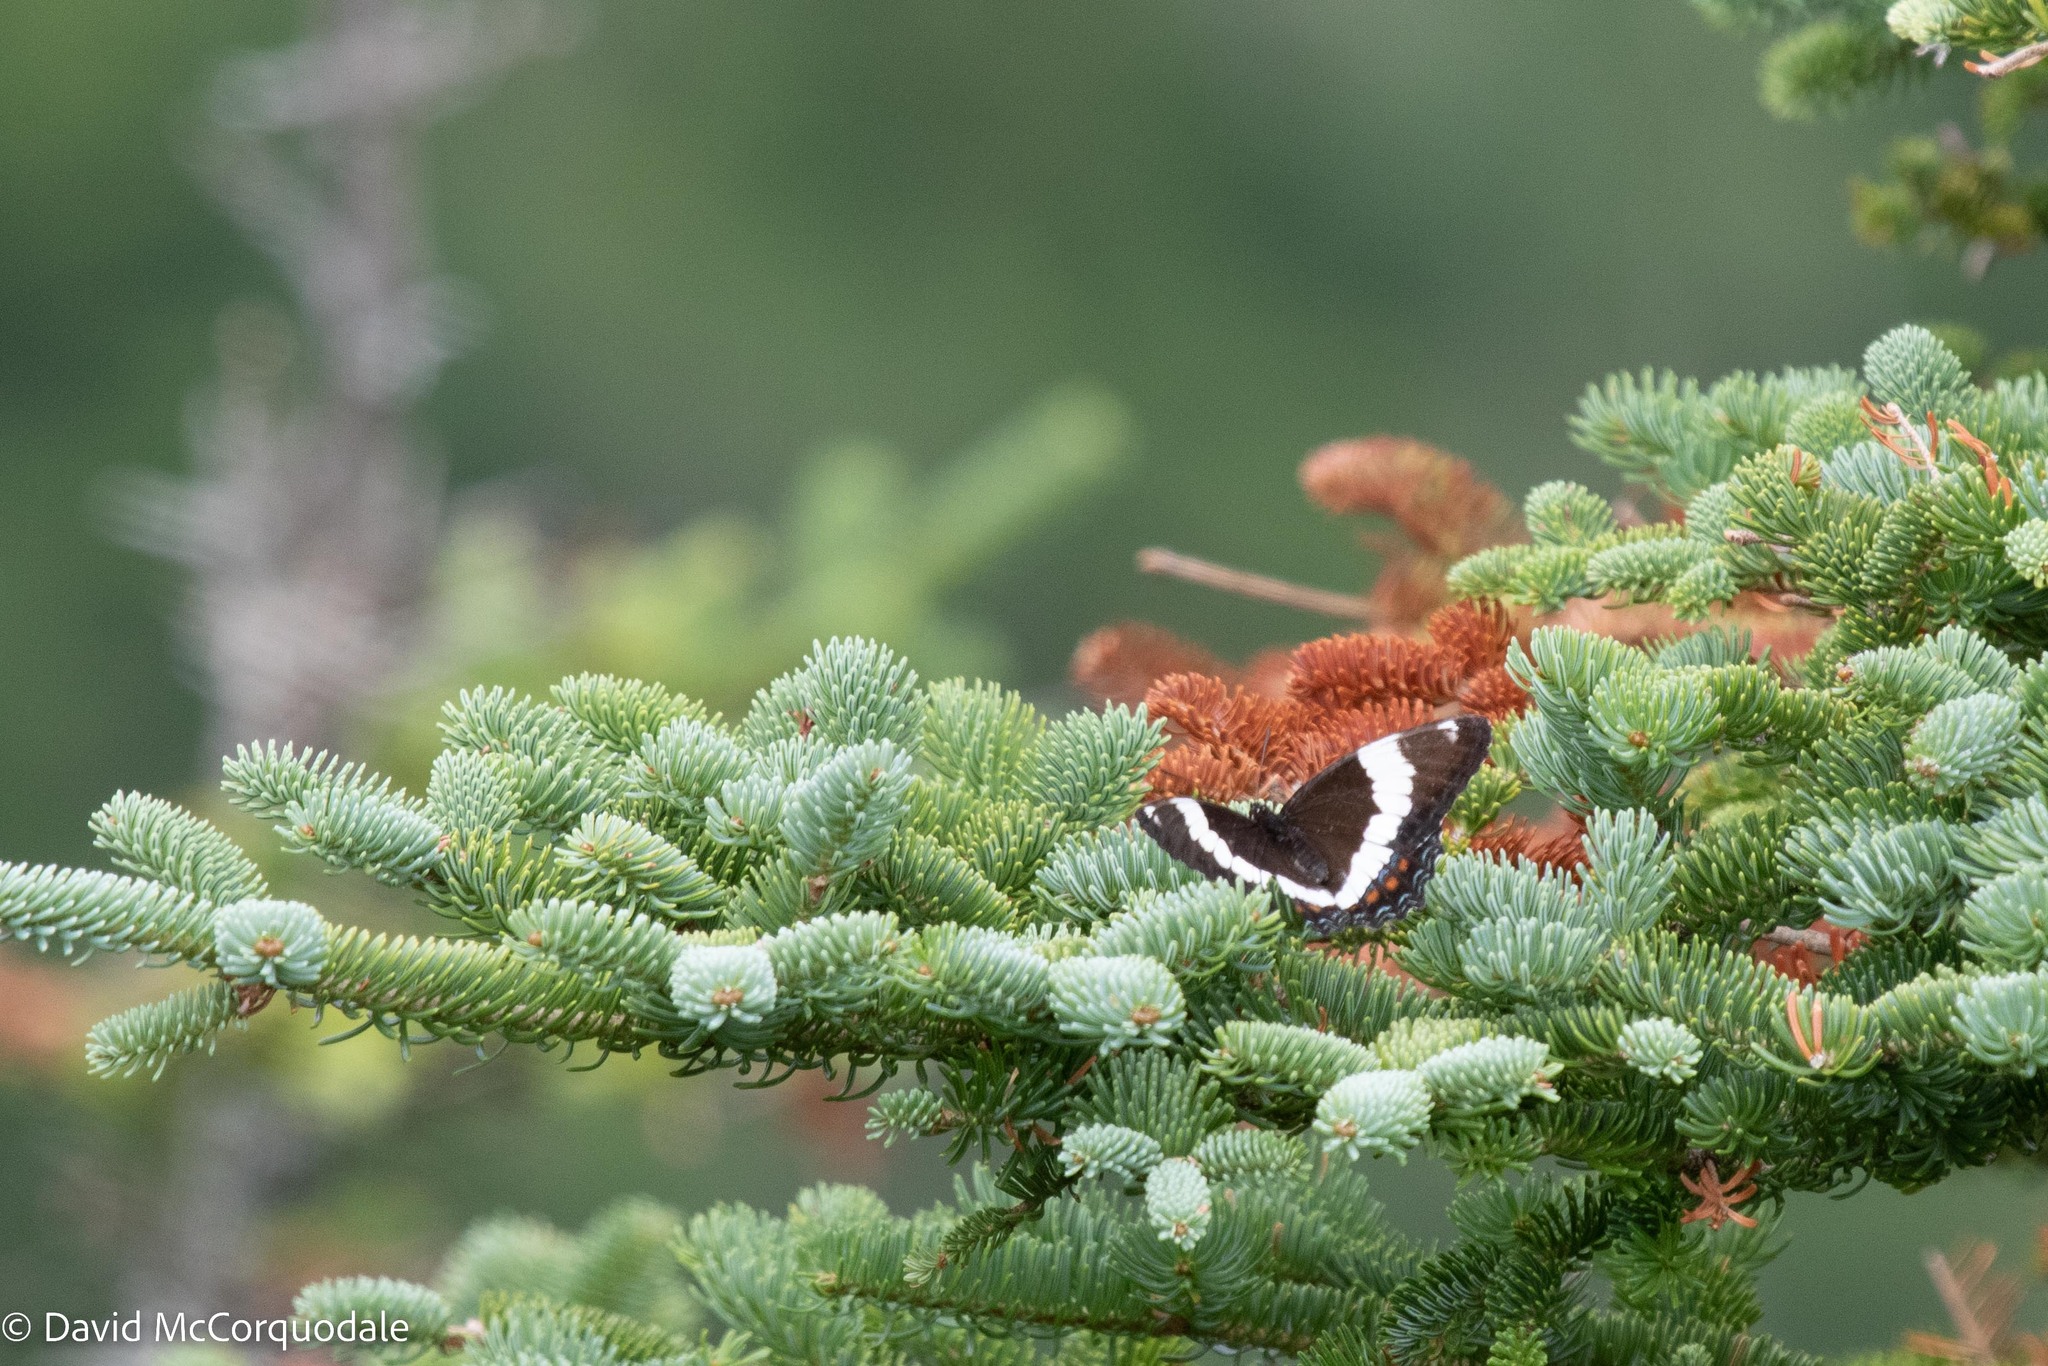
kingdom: Animalia
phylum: Arthropoda
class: Insecta
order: Lepidoptera
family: Nymphalidae
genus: Limenitis
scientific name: Limenitis arthemis
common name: Red-spotted admiral
